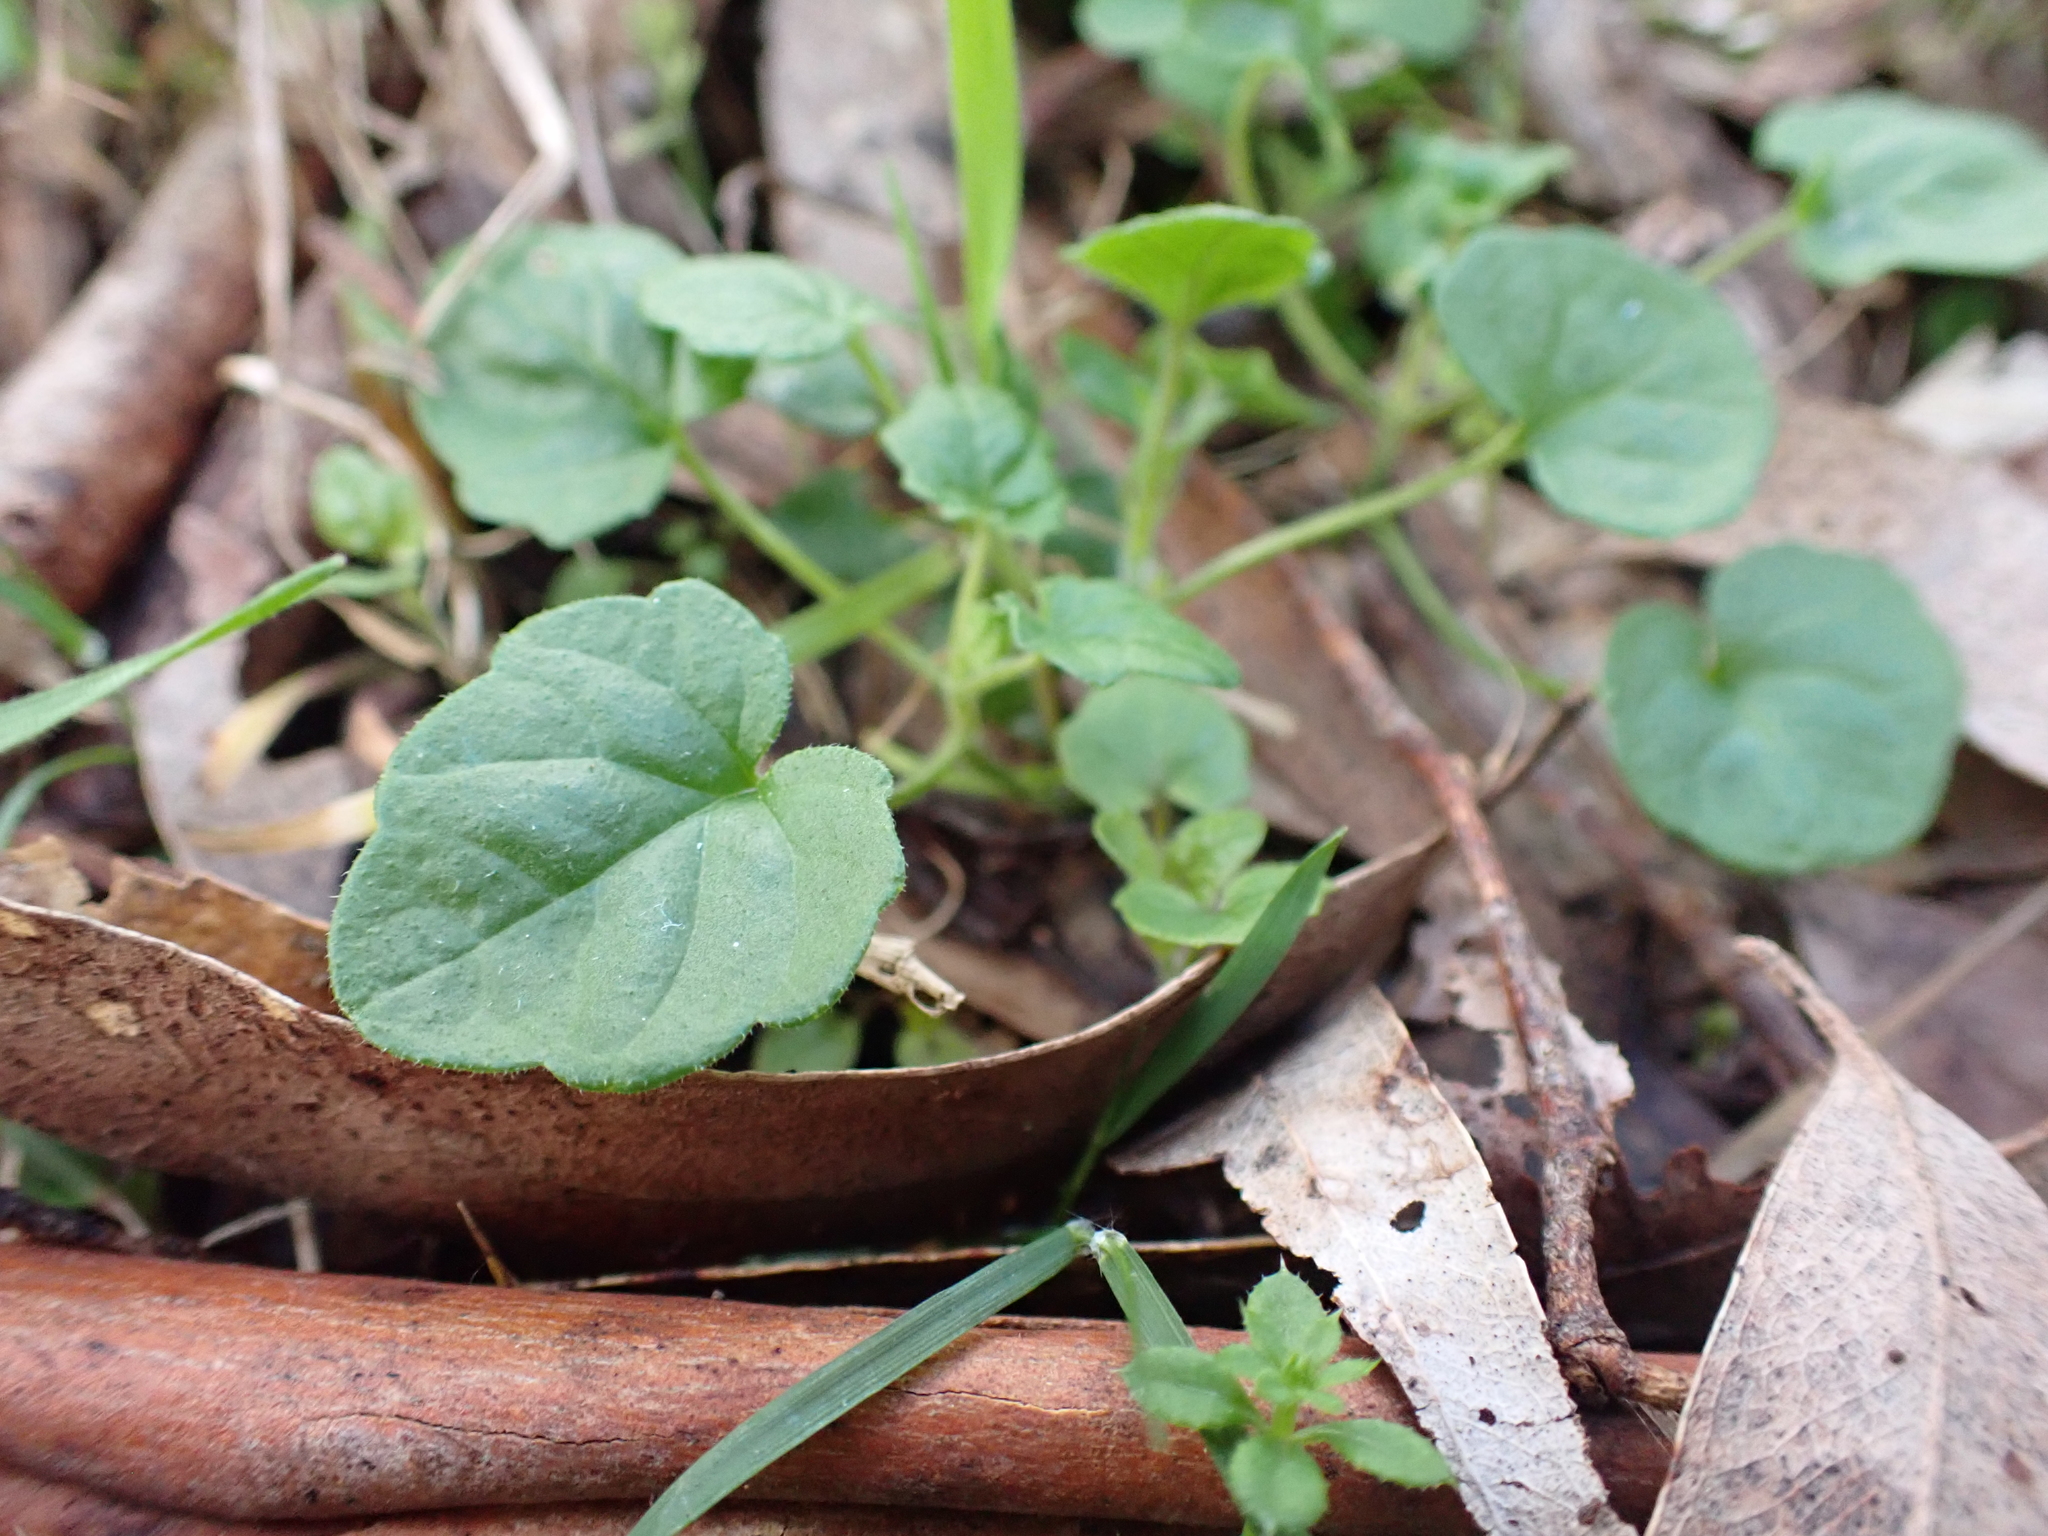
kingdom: Plantae
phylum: Tracheophyta
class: Magnoliopsida
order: Lamiales
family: Lamiaceae
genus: Scutellaria
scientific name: Scutellaria humilis
